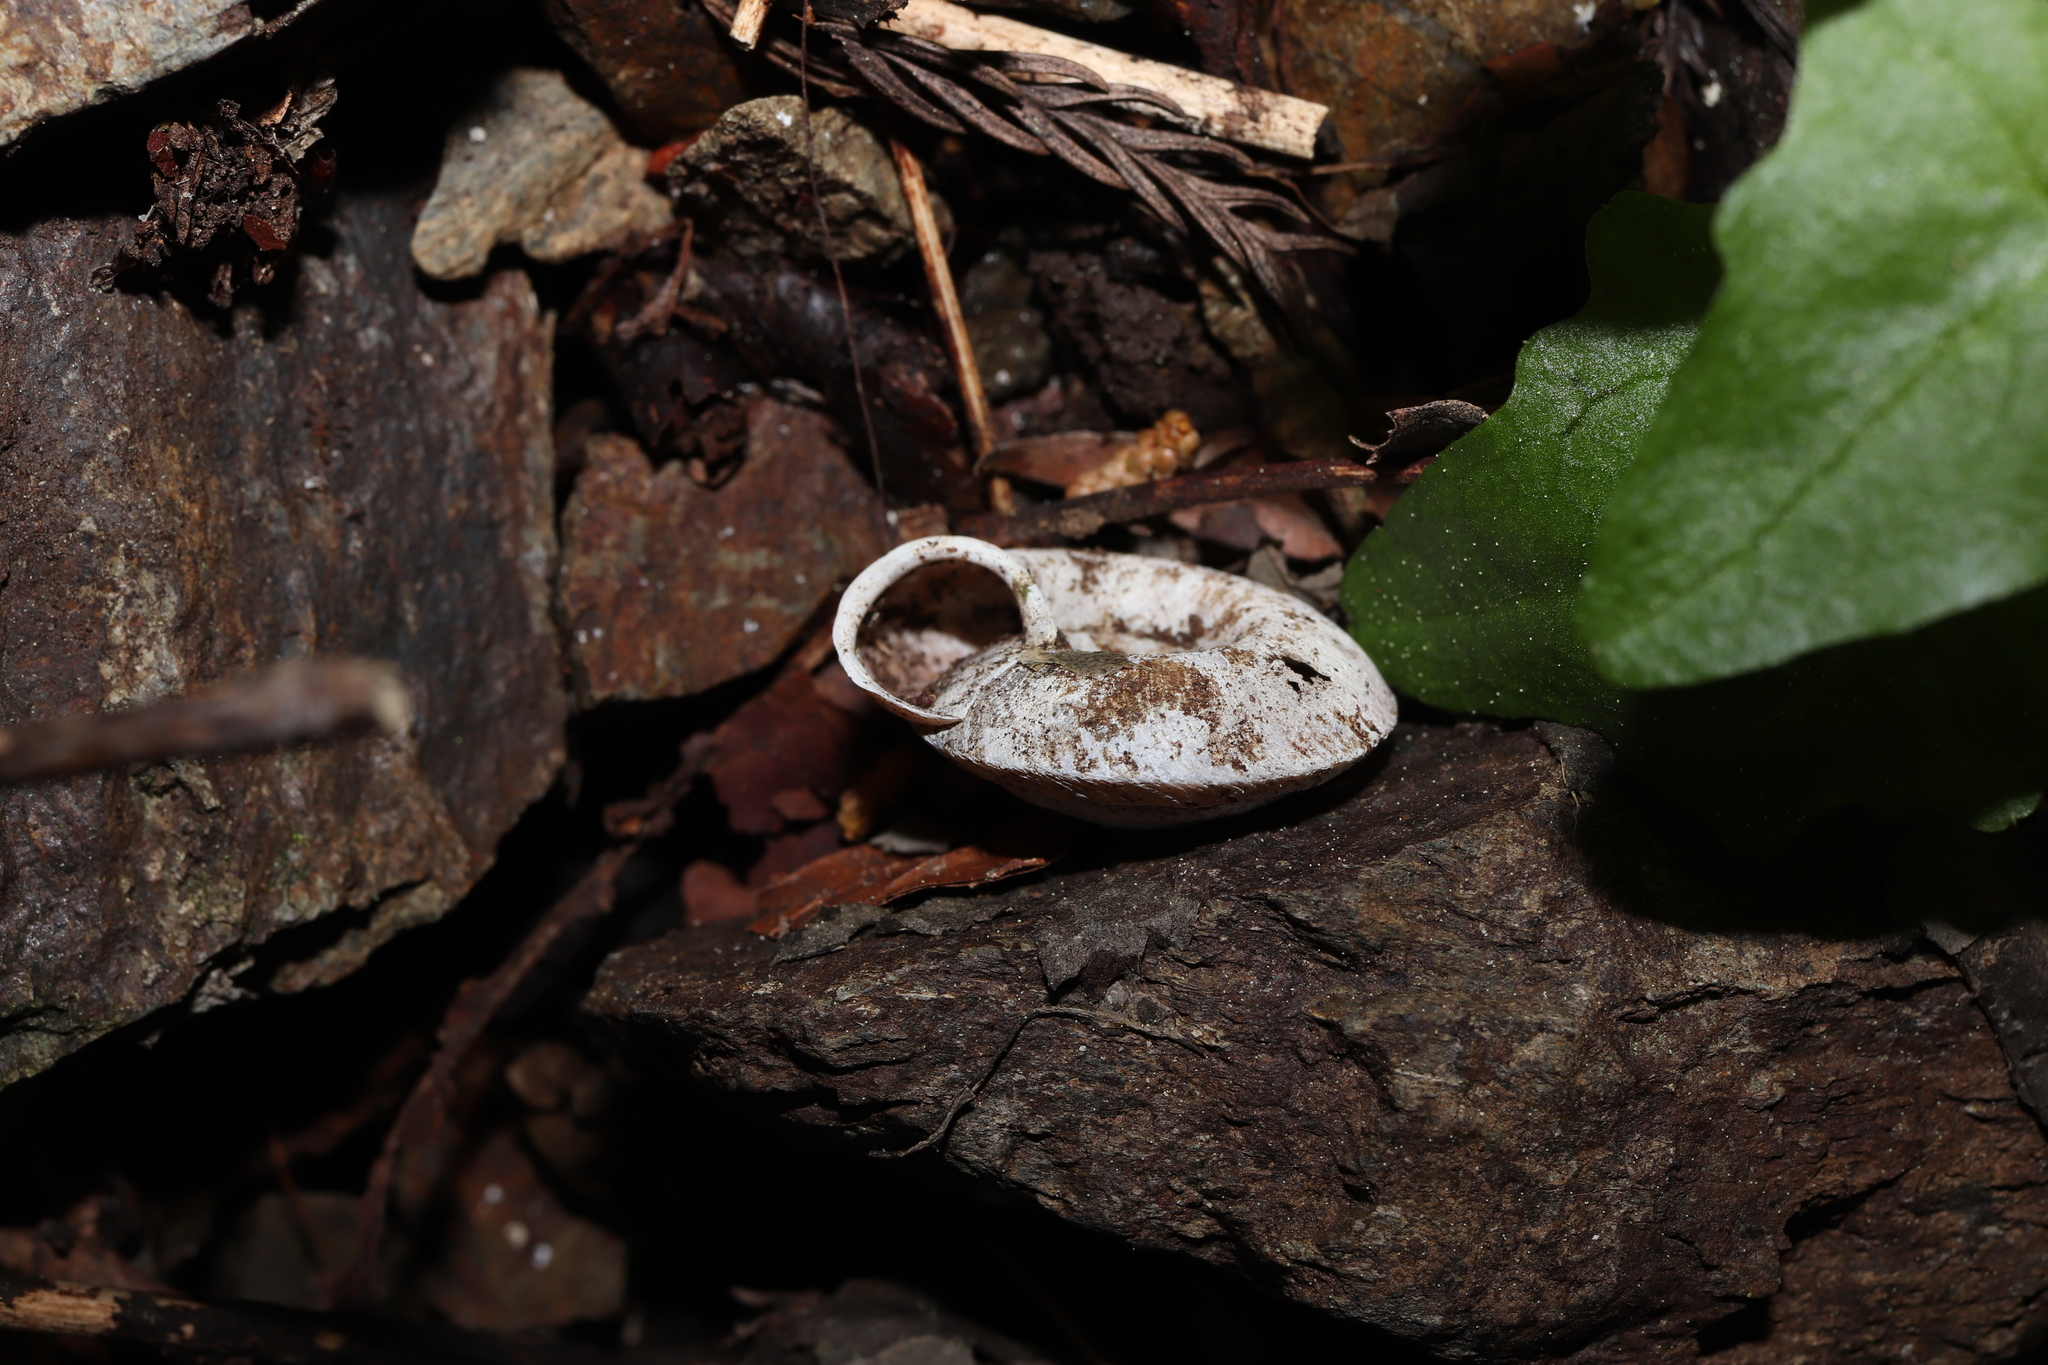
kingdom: Animalia
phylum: Mollusca
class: Gastropoda
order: Stylommatophora
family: Camaenidae
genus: Plectotropis
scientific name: Plectotropis vulgivaga
